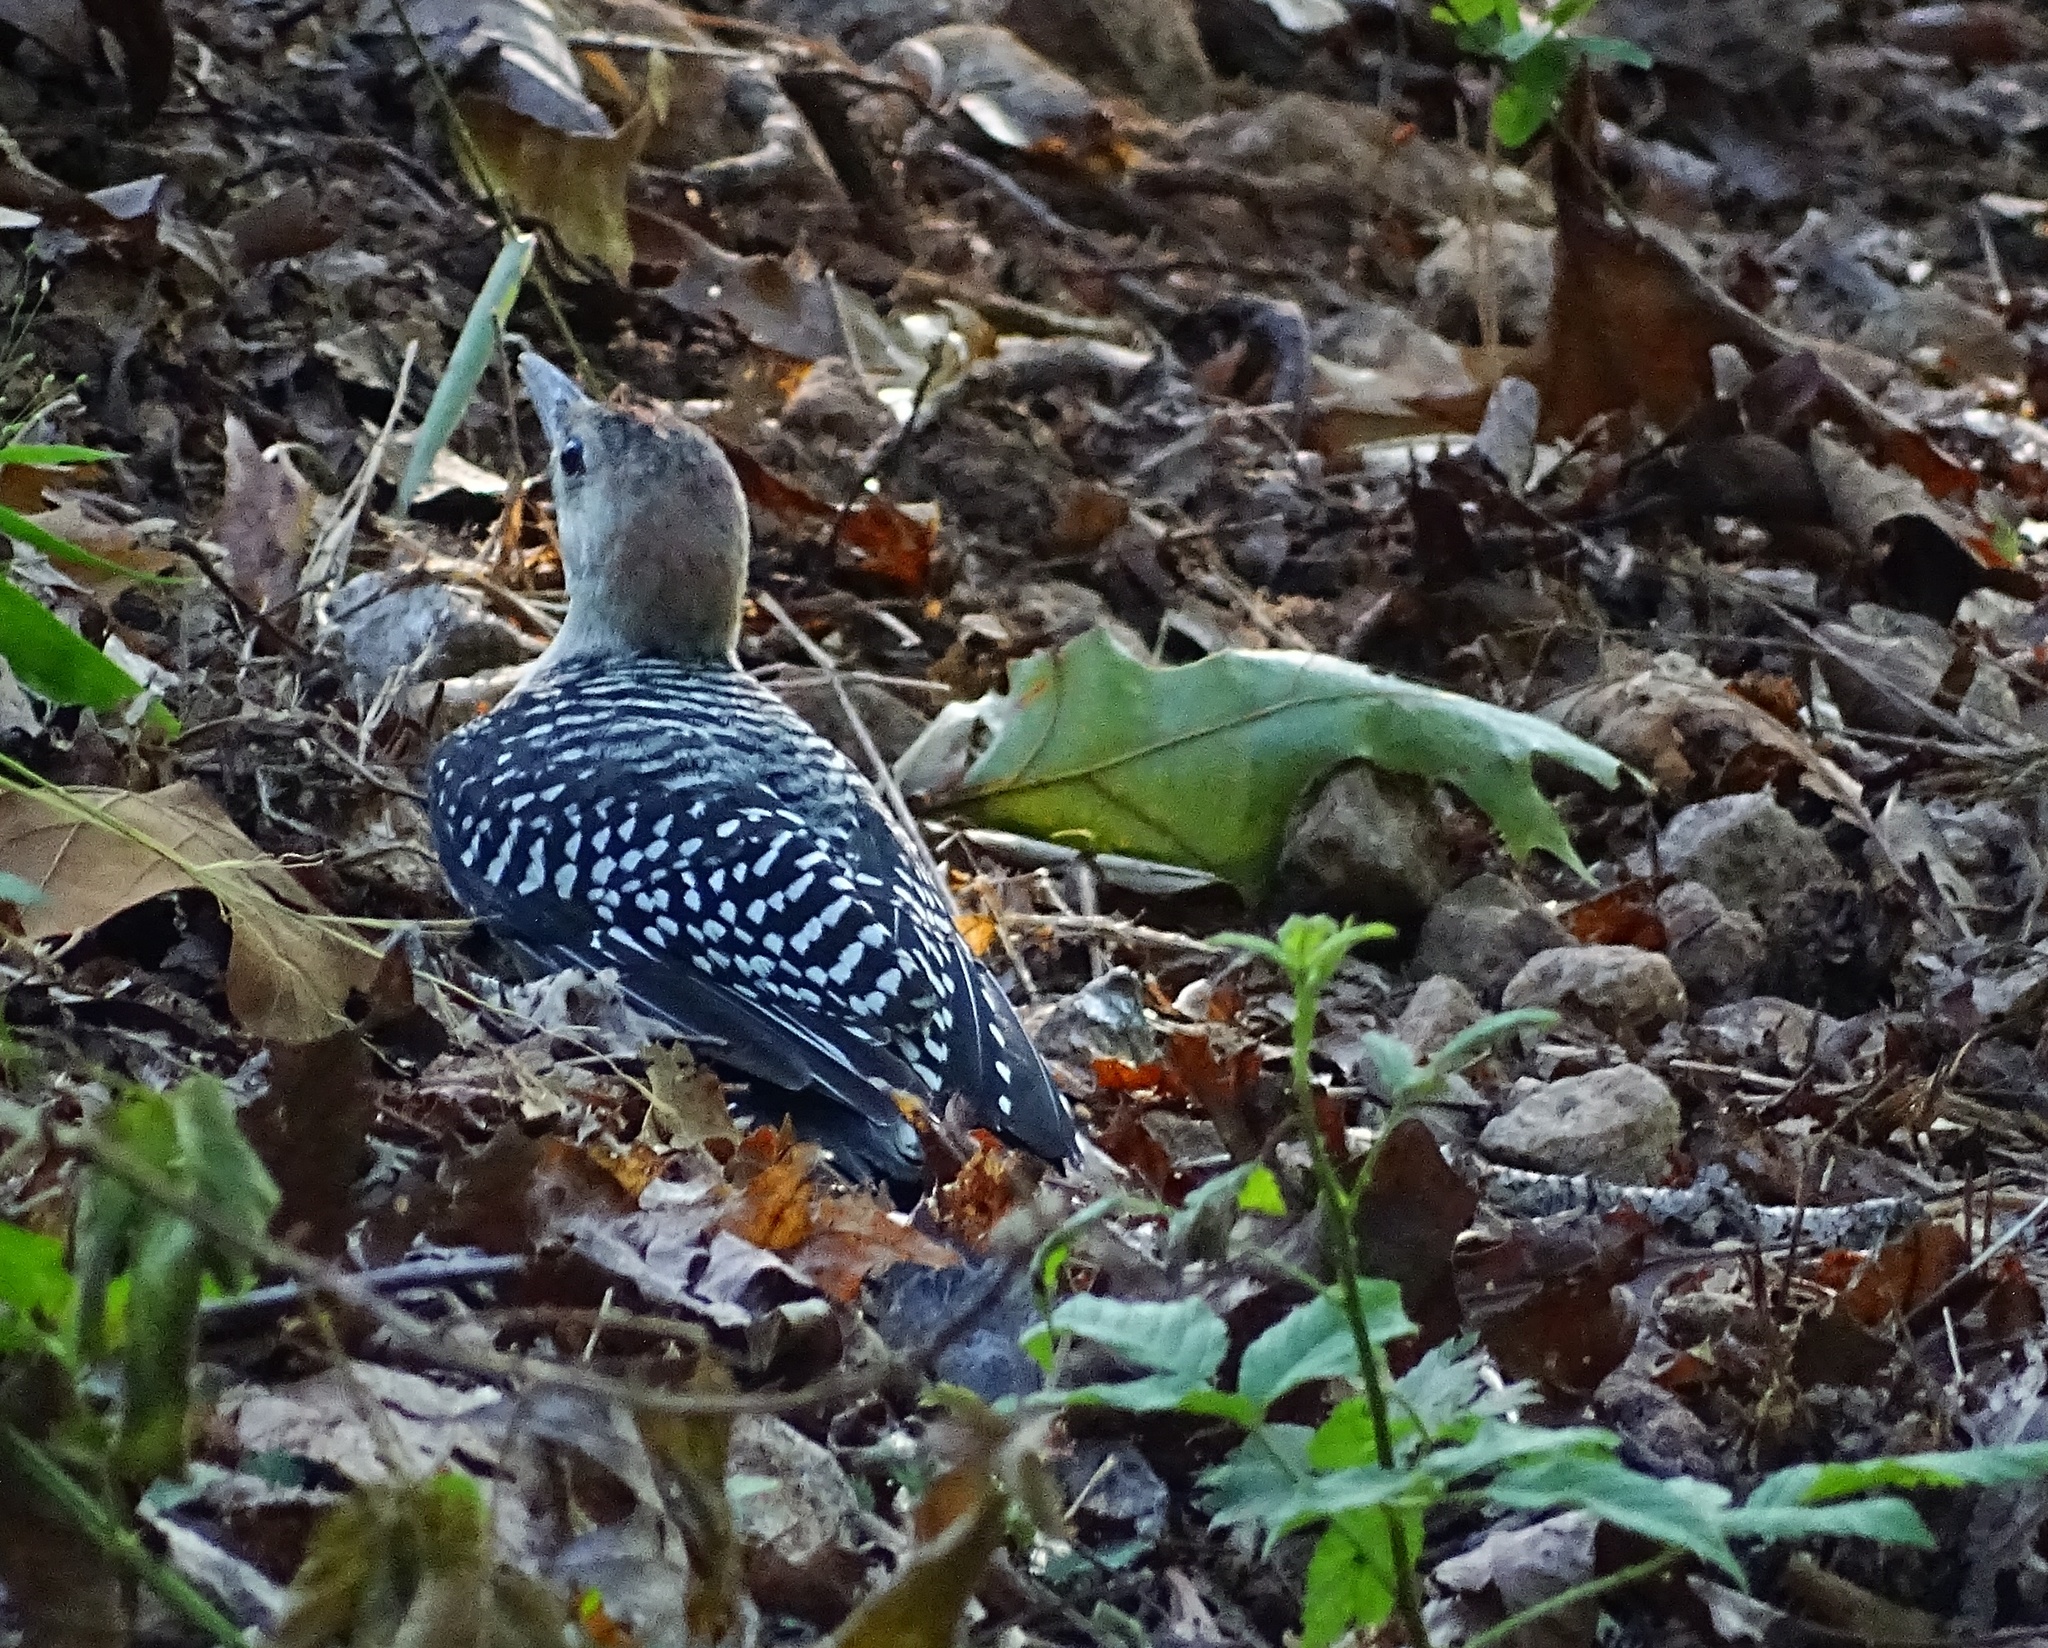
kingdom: Animalia
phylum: Chordata
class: Aves
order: Piciformes
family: Picidae
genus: Melanerpes
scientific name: Melanerpes carolinus
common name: Red-bellied woodpecker
